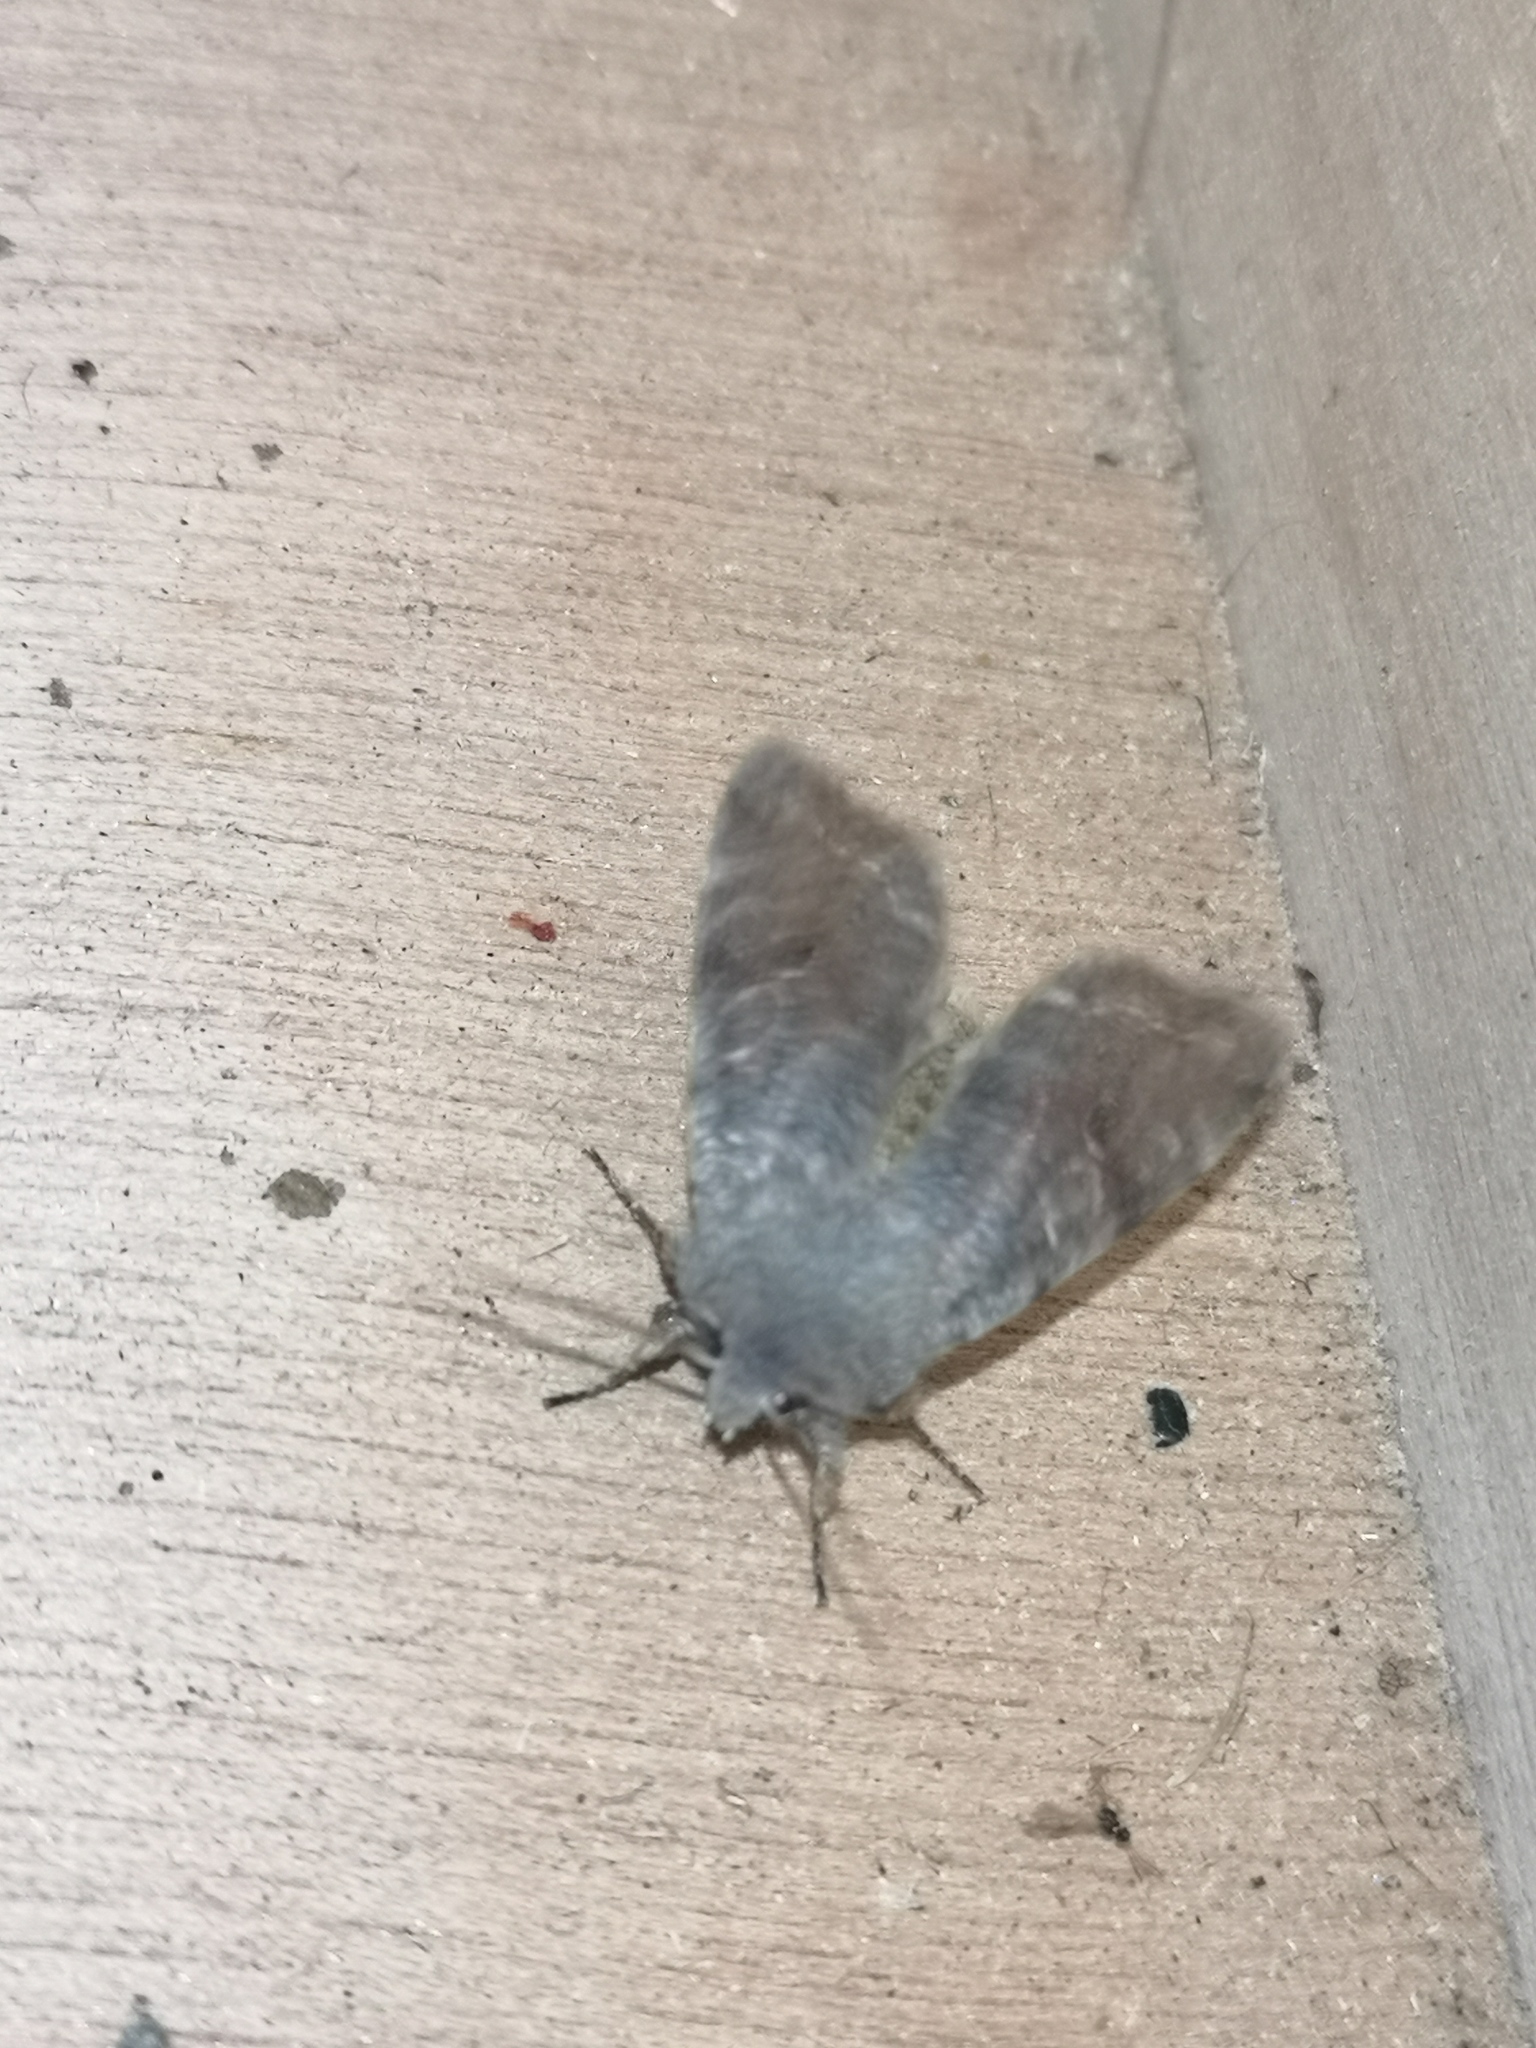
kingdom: Animalia
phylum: Arthropoda
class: Insecta
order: Lepidoptera
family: Noctuidae
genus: Orthosia
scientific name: Orthosia incerta
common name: Clouded drab
